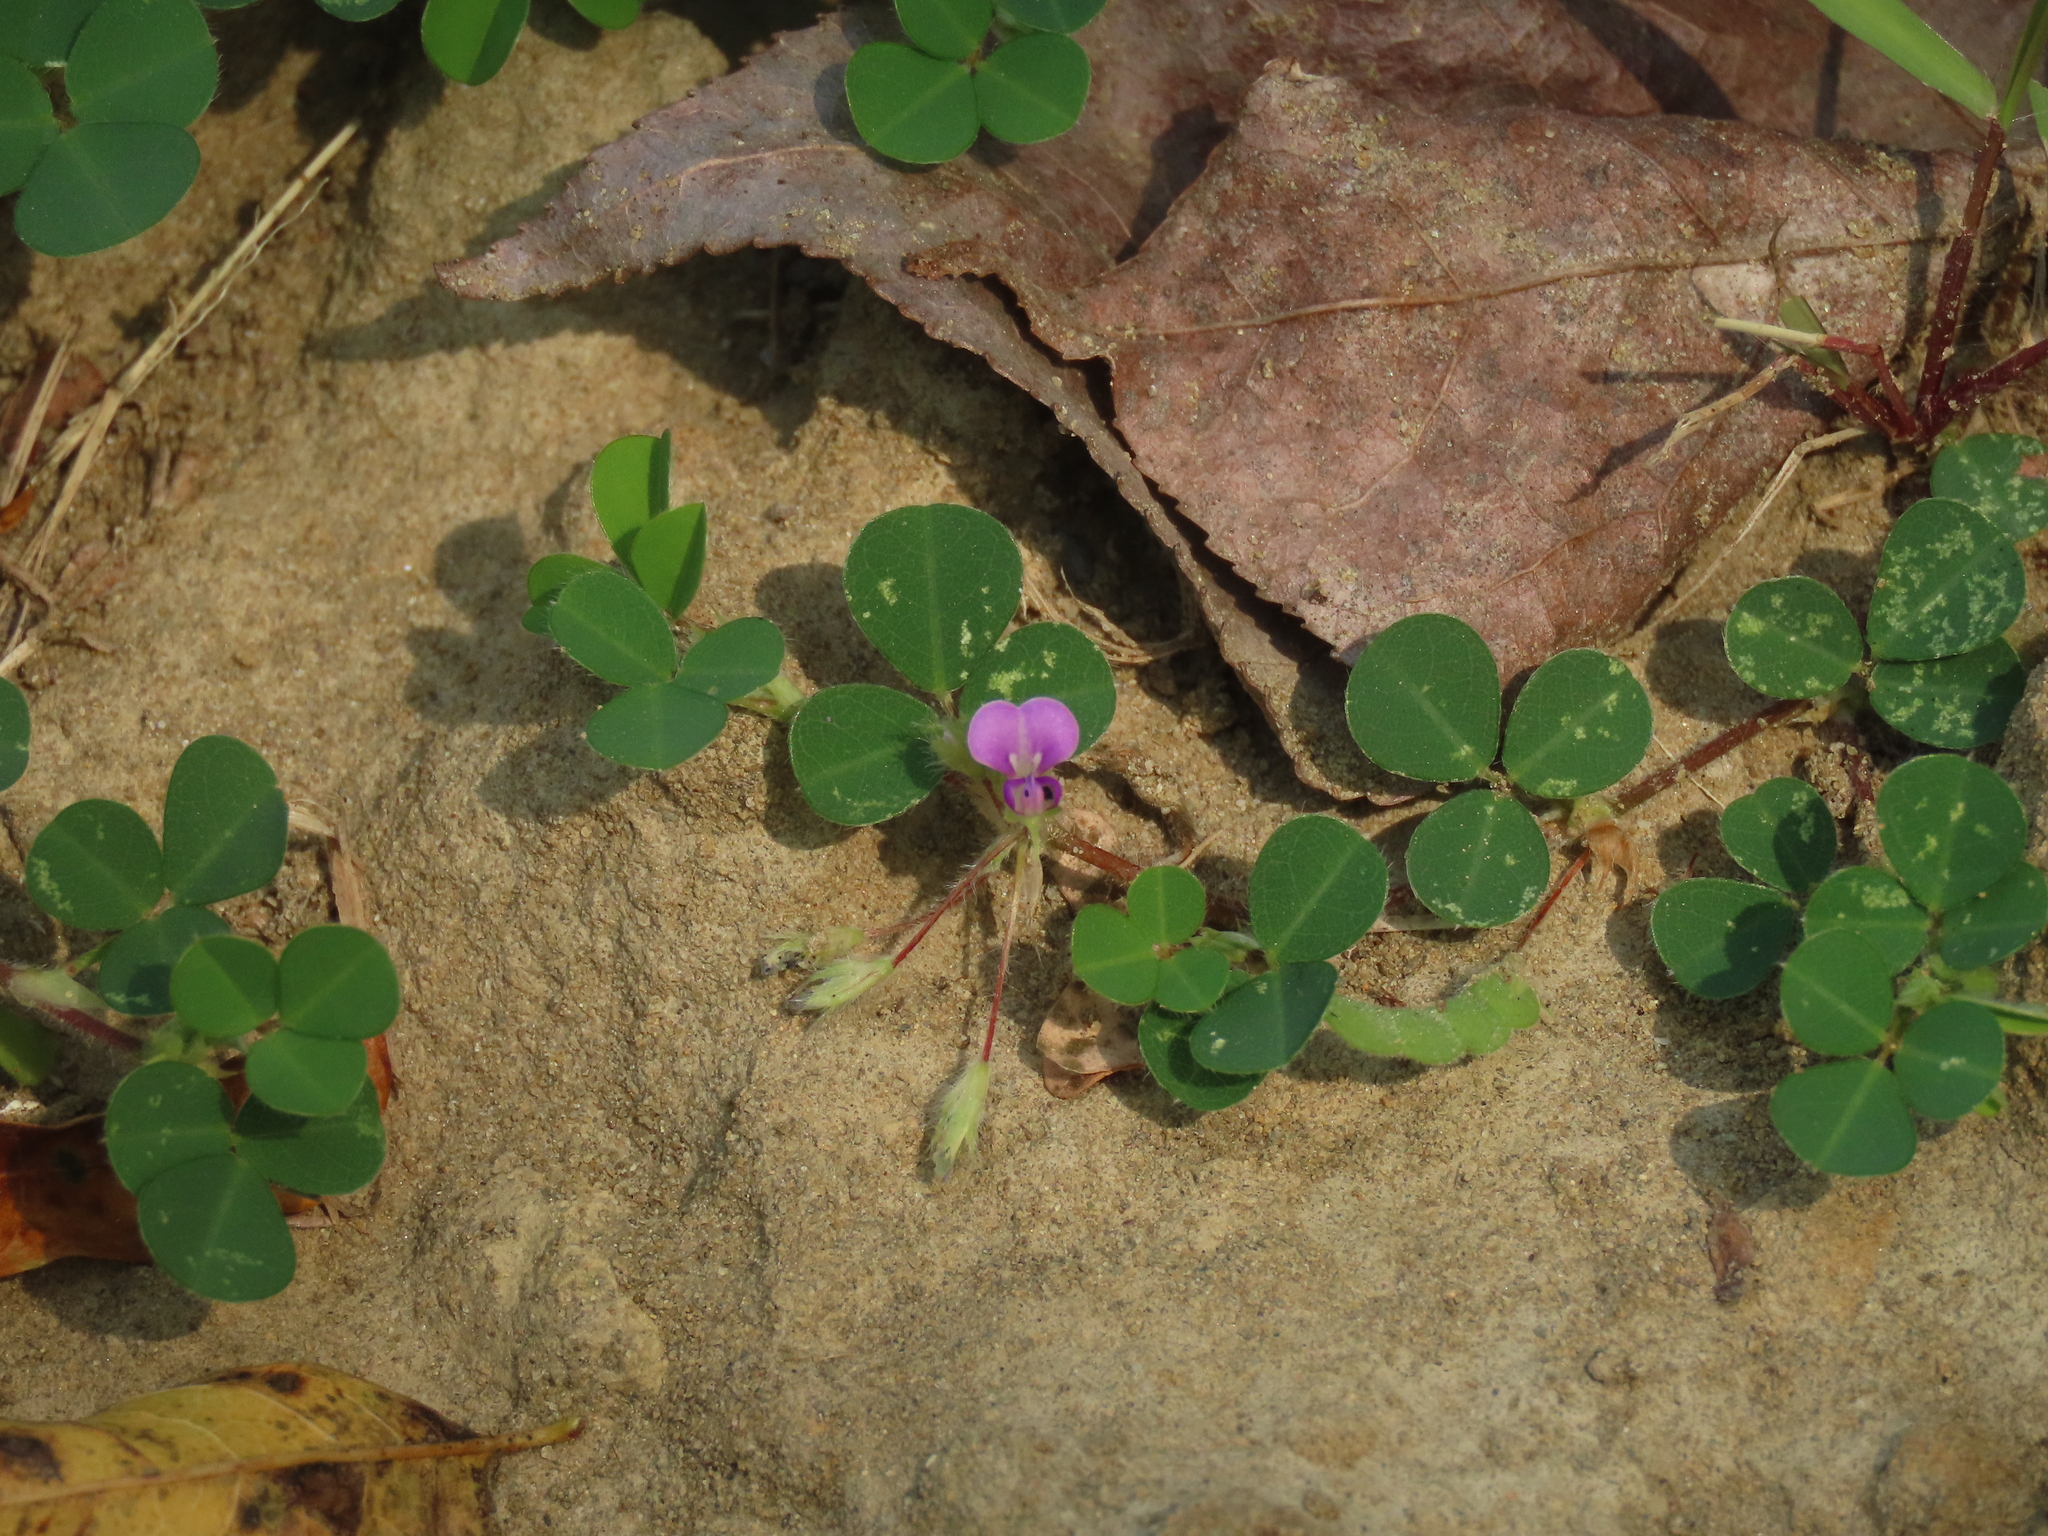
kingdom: Plantae
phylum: Tracheophyta
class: Magnoliopsida
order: Fabales
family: Fabaceae
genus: Grona
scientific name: Grona triflora
